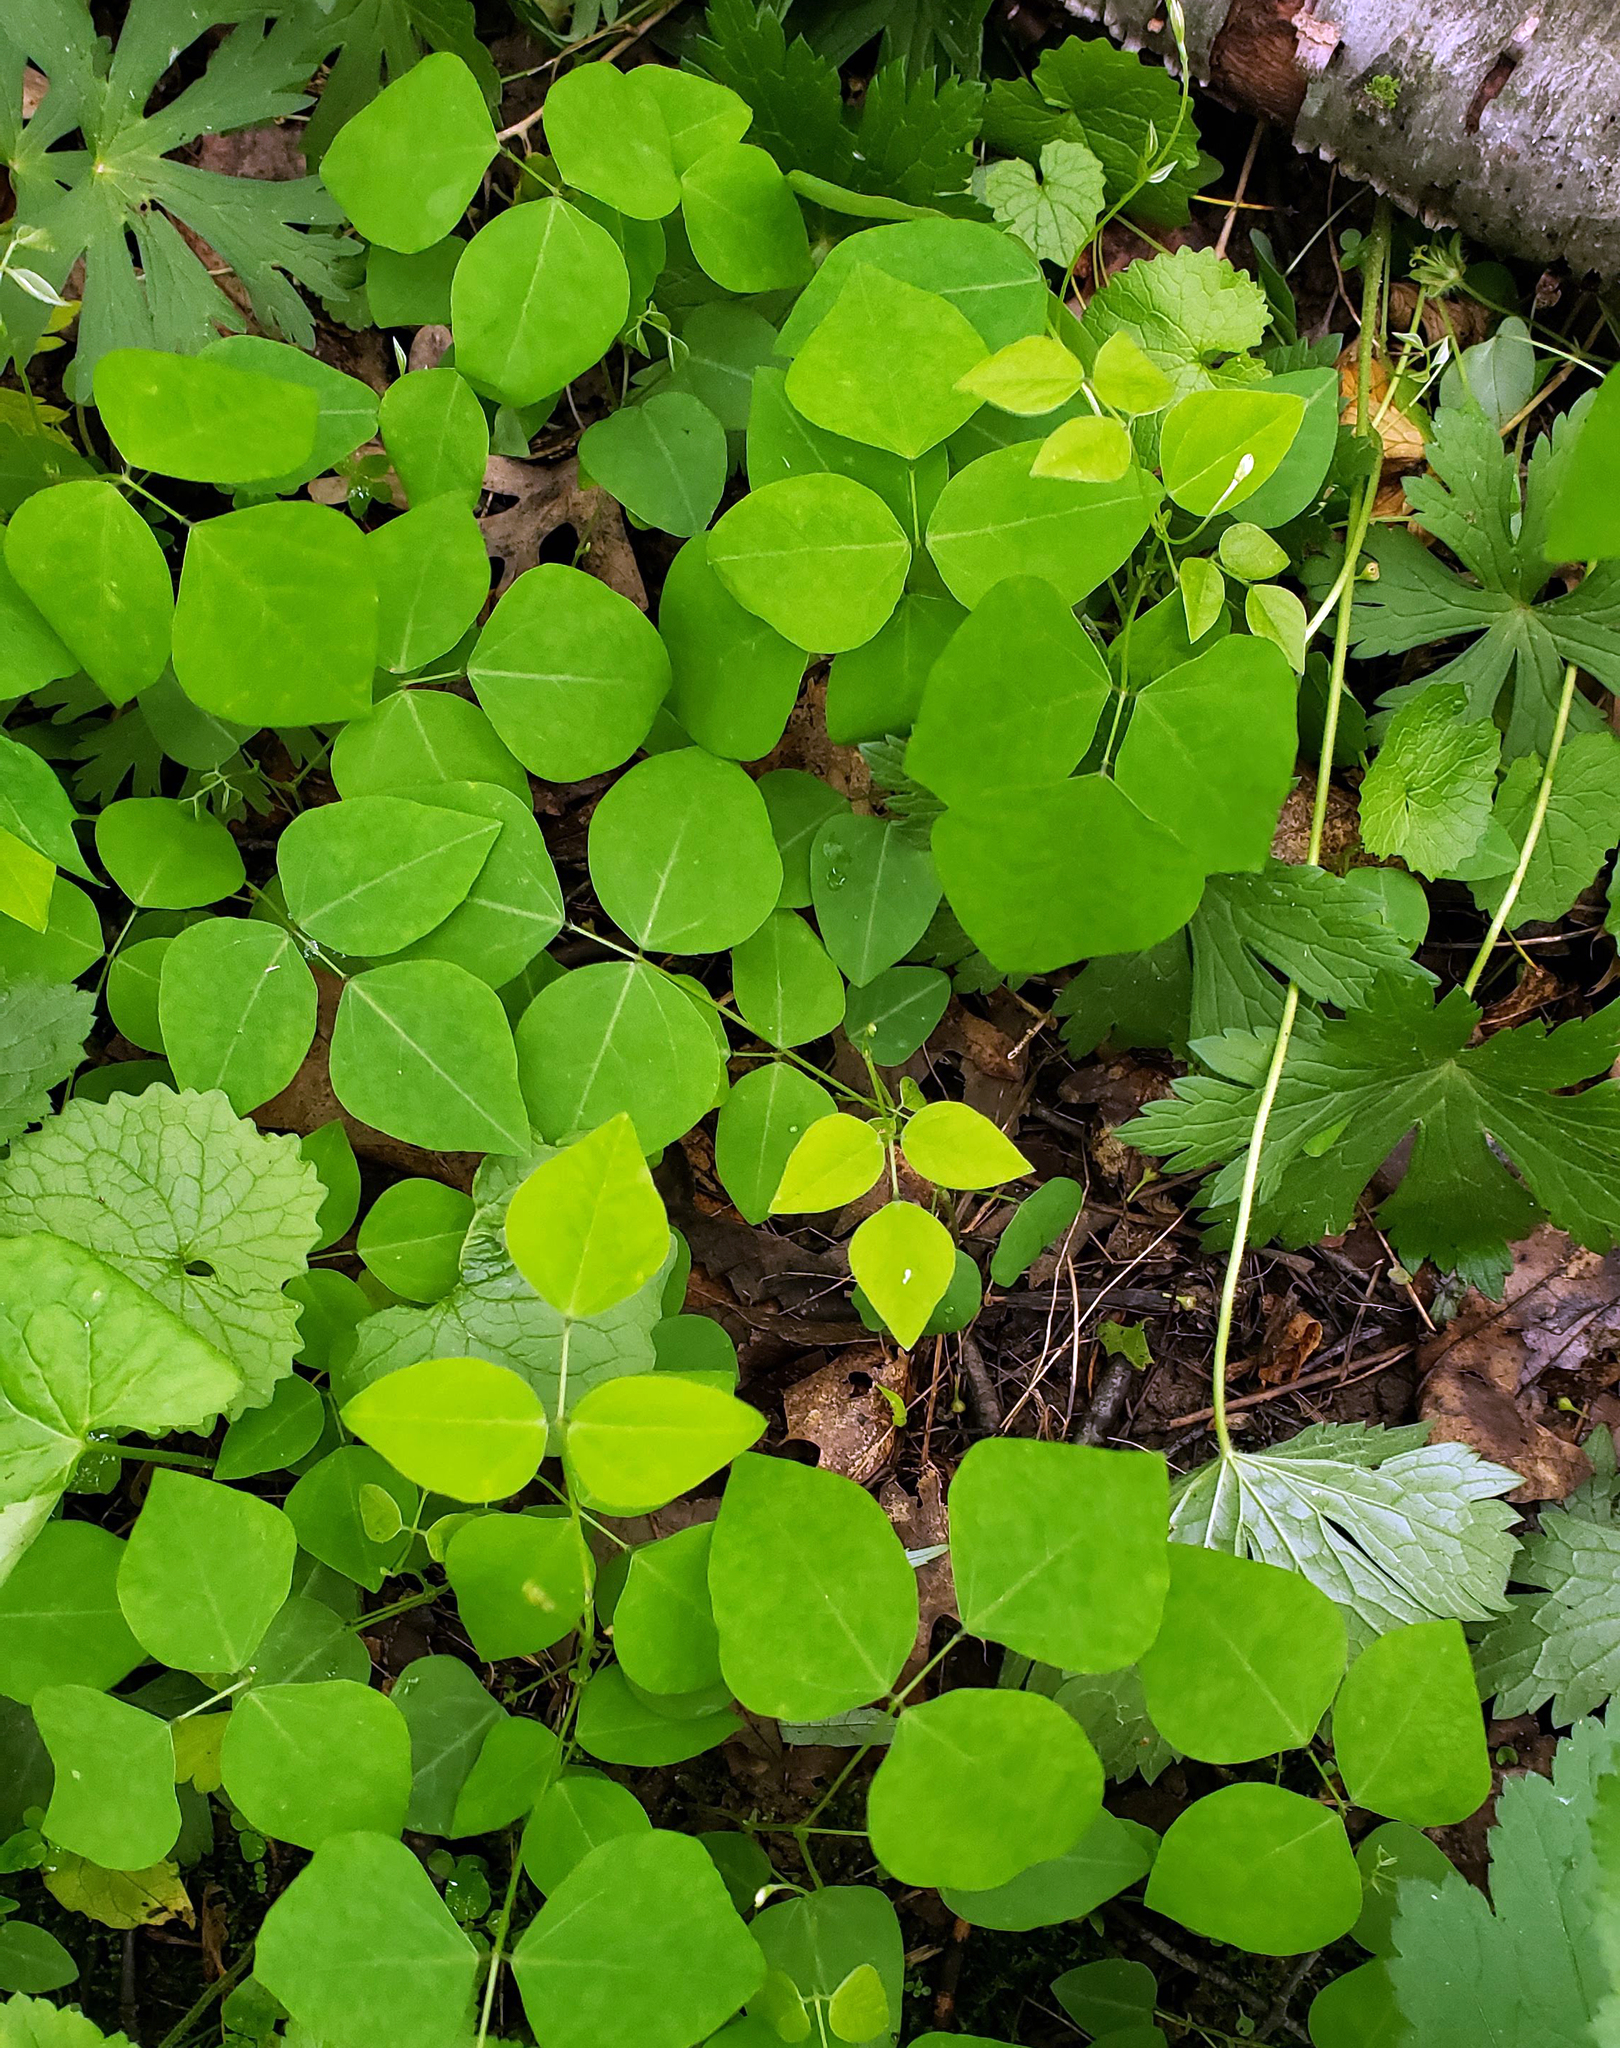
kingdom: Plantae
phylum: Tracheophyta
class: Magnoliopsida
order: Fabales
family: Fabaceae
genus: Amphicarpaea
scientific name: Amphicarpaea bracteata
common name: American hog peanut
